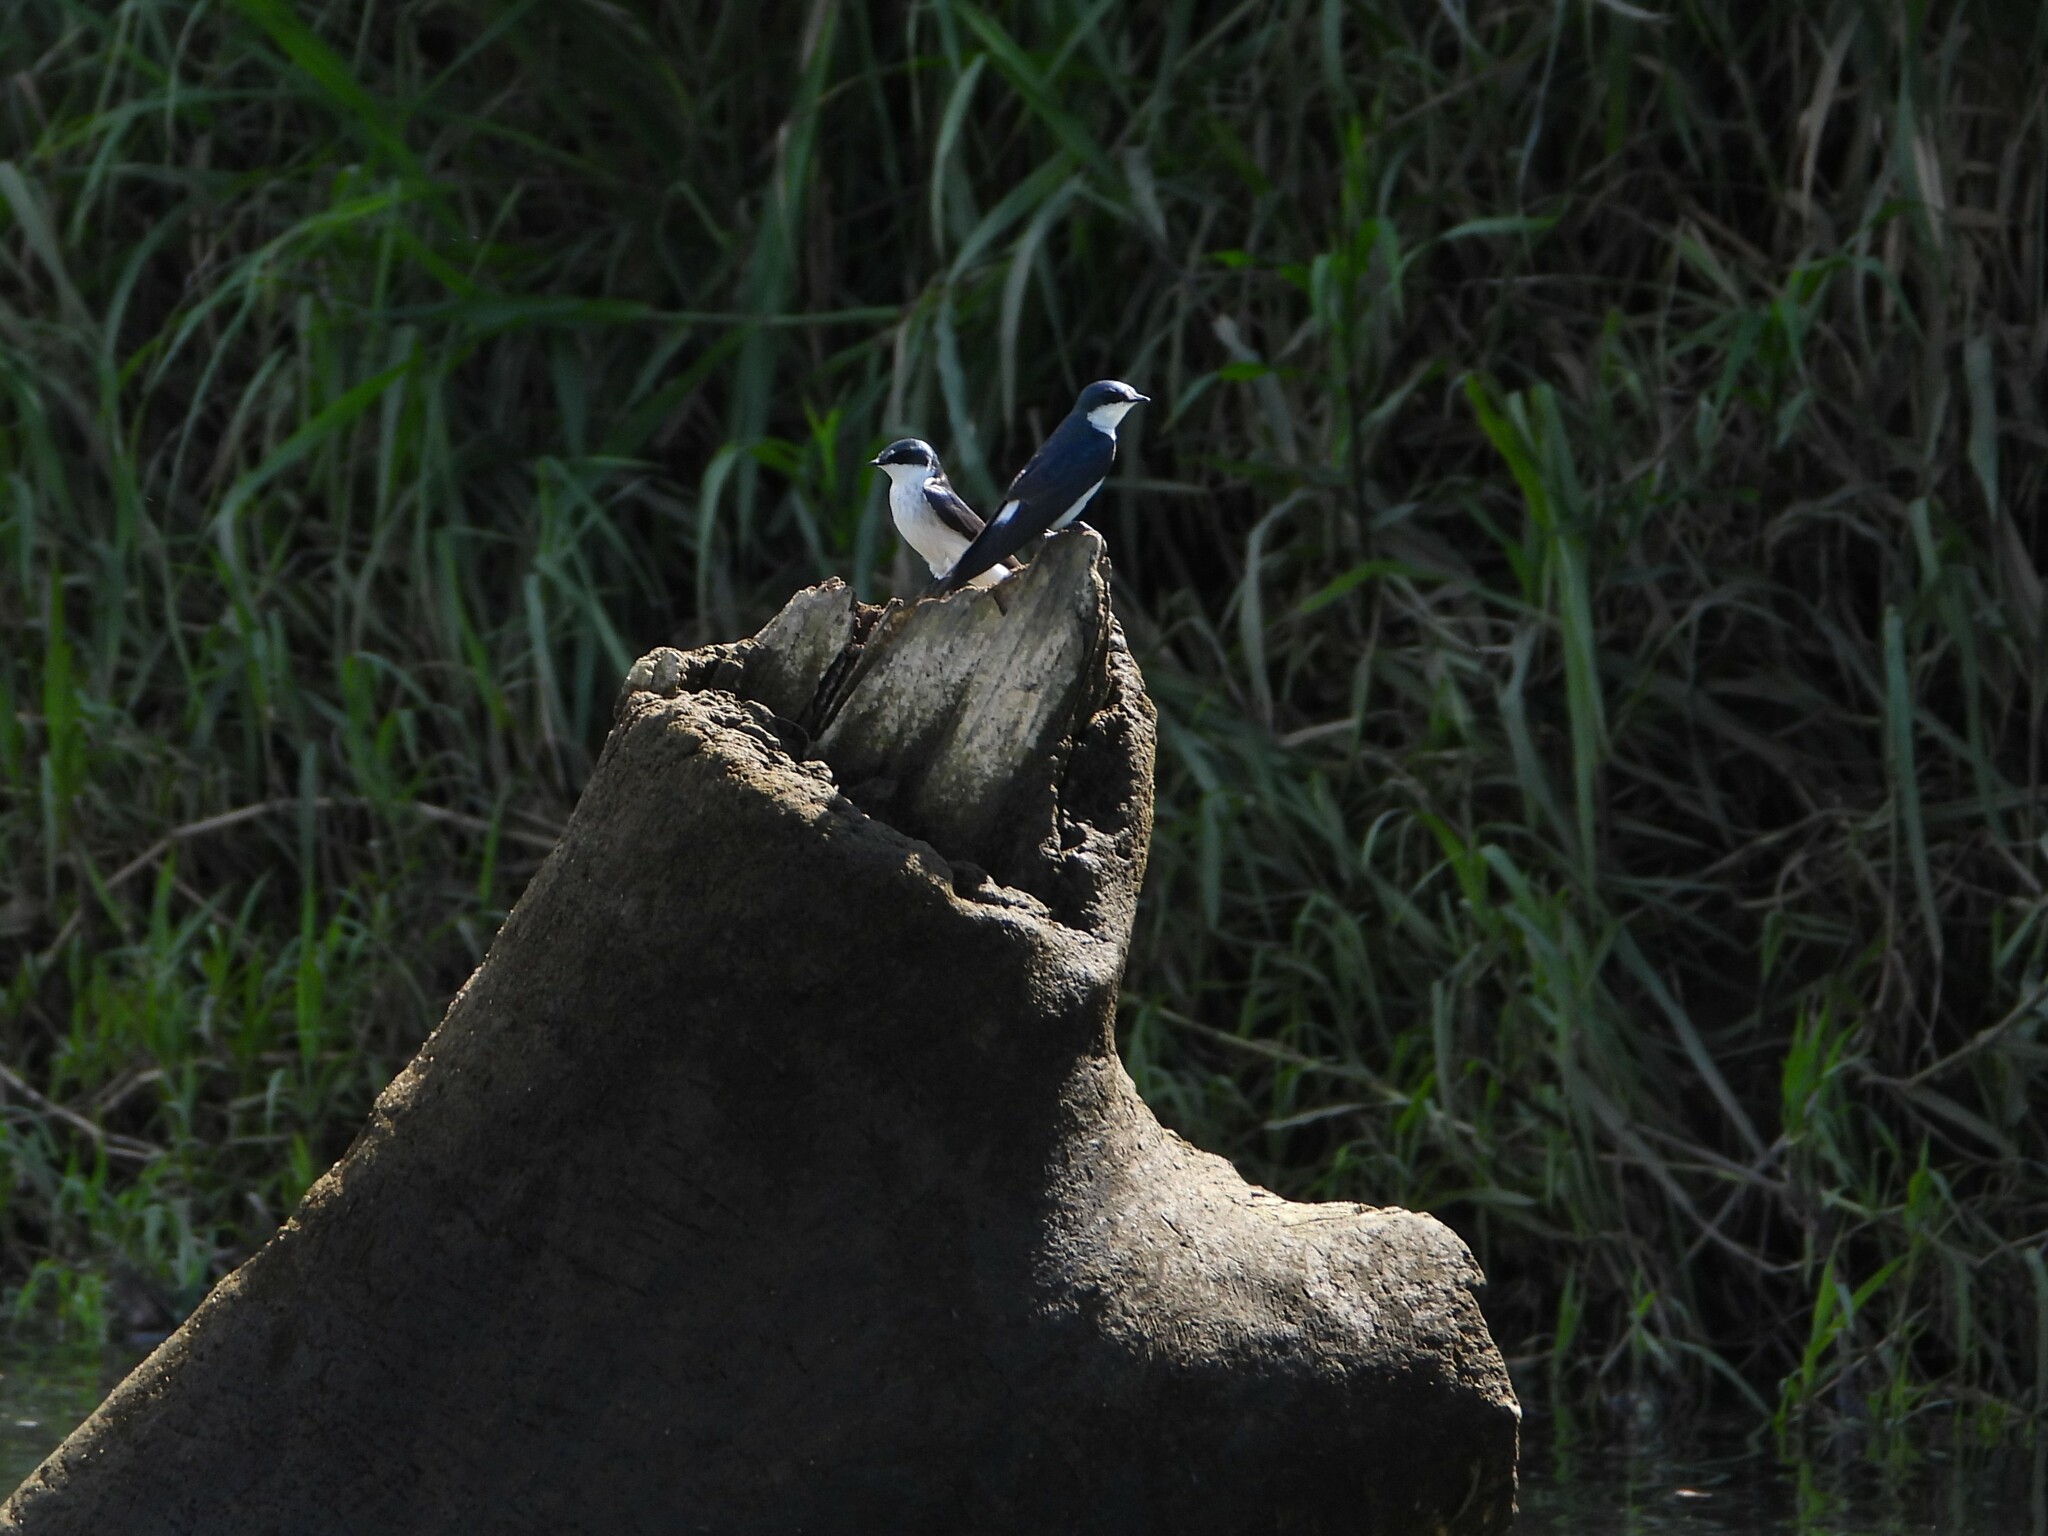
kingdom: Animalia
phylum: Chordata
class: Aves
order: Passeriformes
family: Hirundinidae
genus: Tachycineta
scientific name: Tachycineta albilinea
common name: Mangrove swallow
